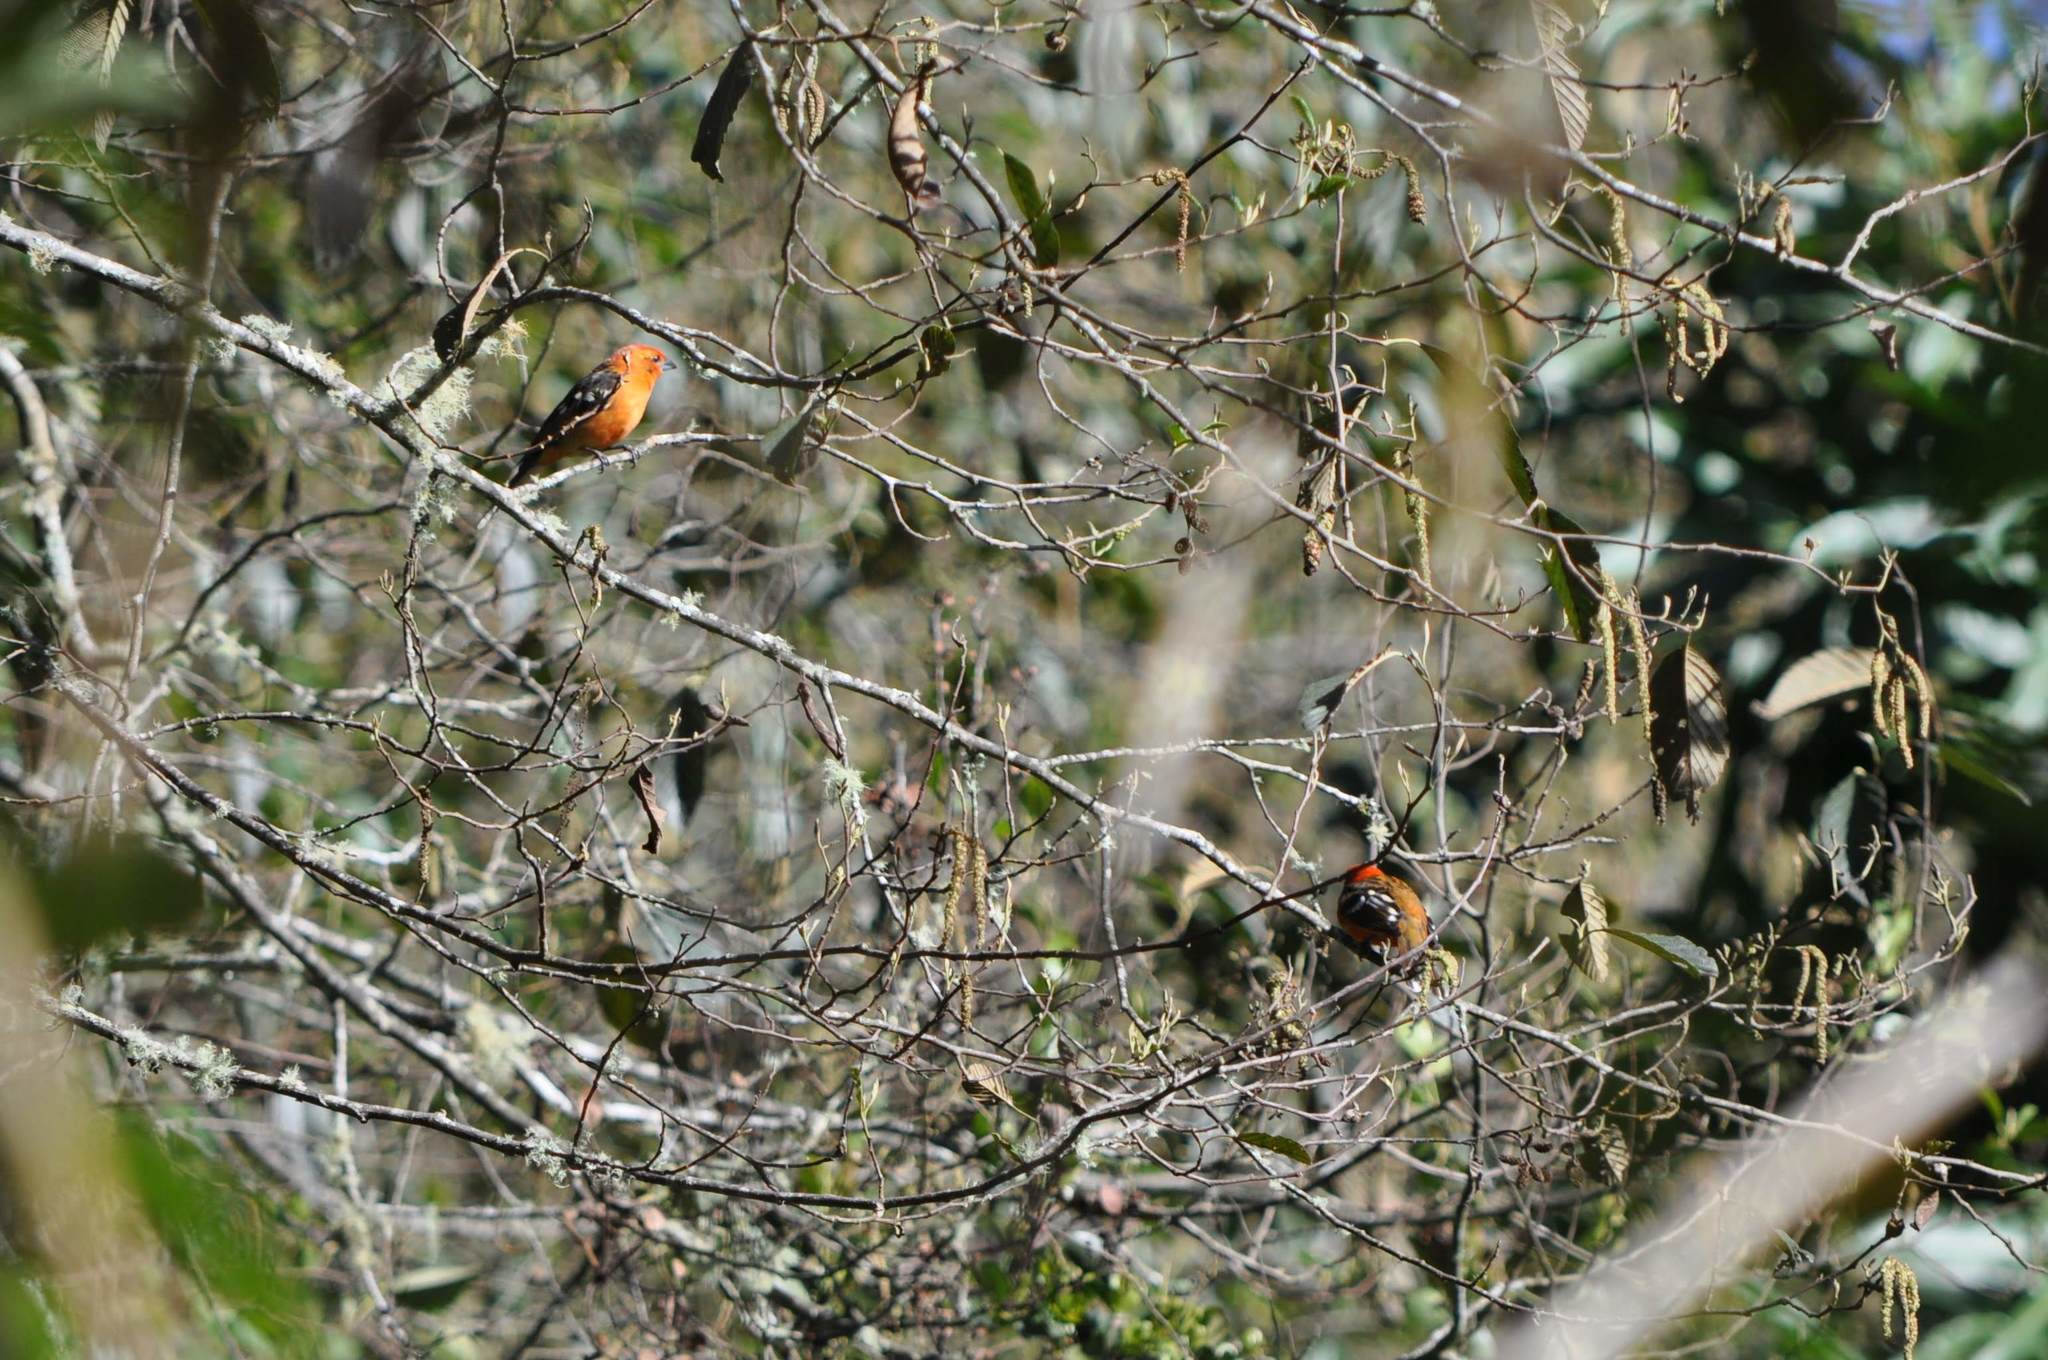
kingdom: Animalia
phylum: Chordata
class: Aves
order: Passeriformes
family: Cardinalidae
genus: Piranga
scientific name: Piranga bidentata
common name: Flame-colored tanager
